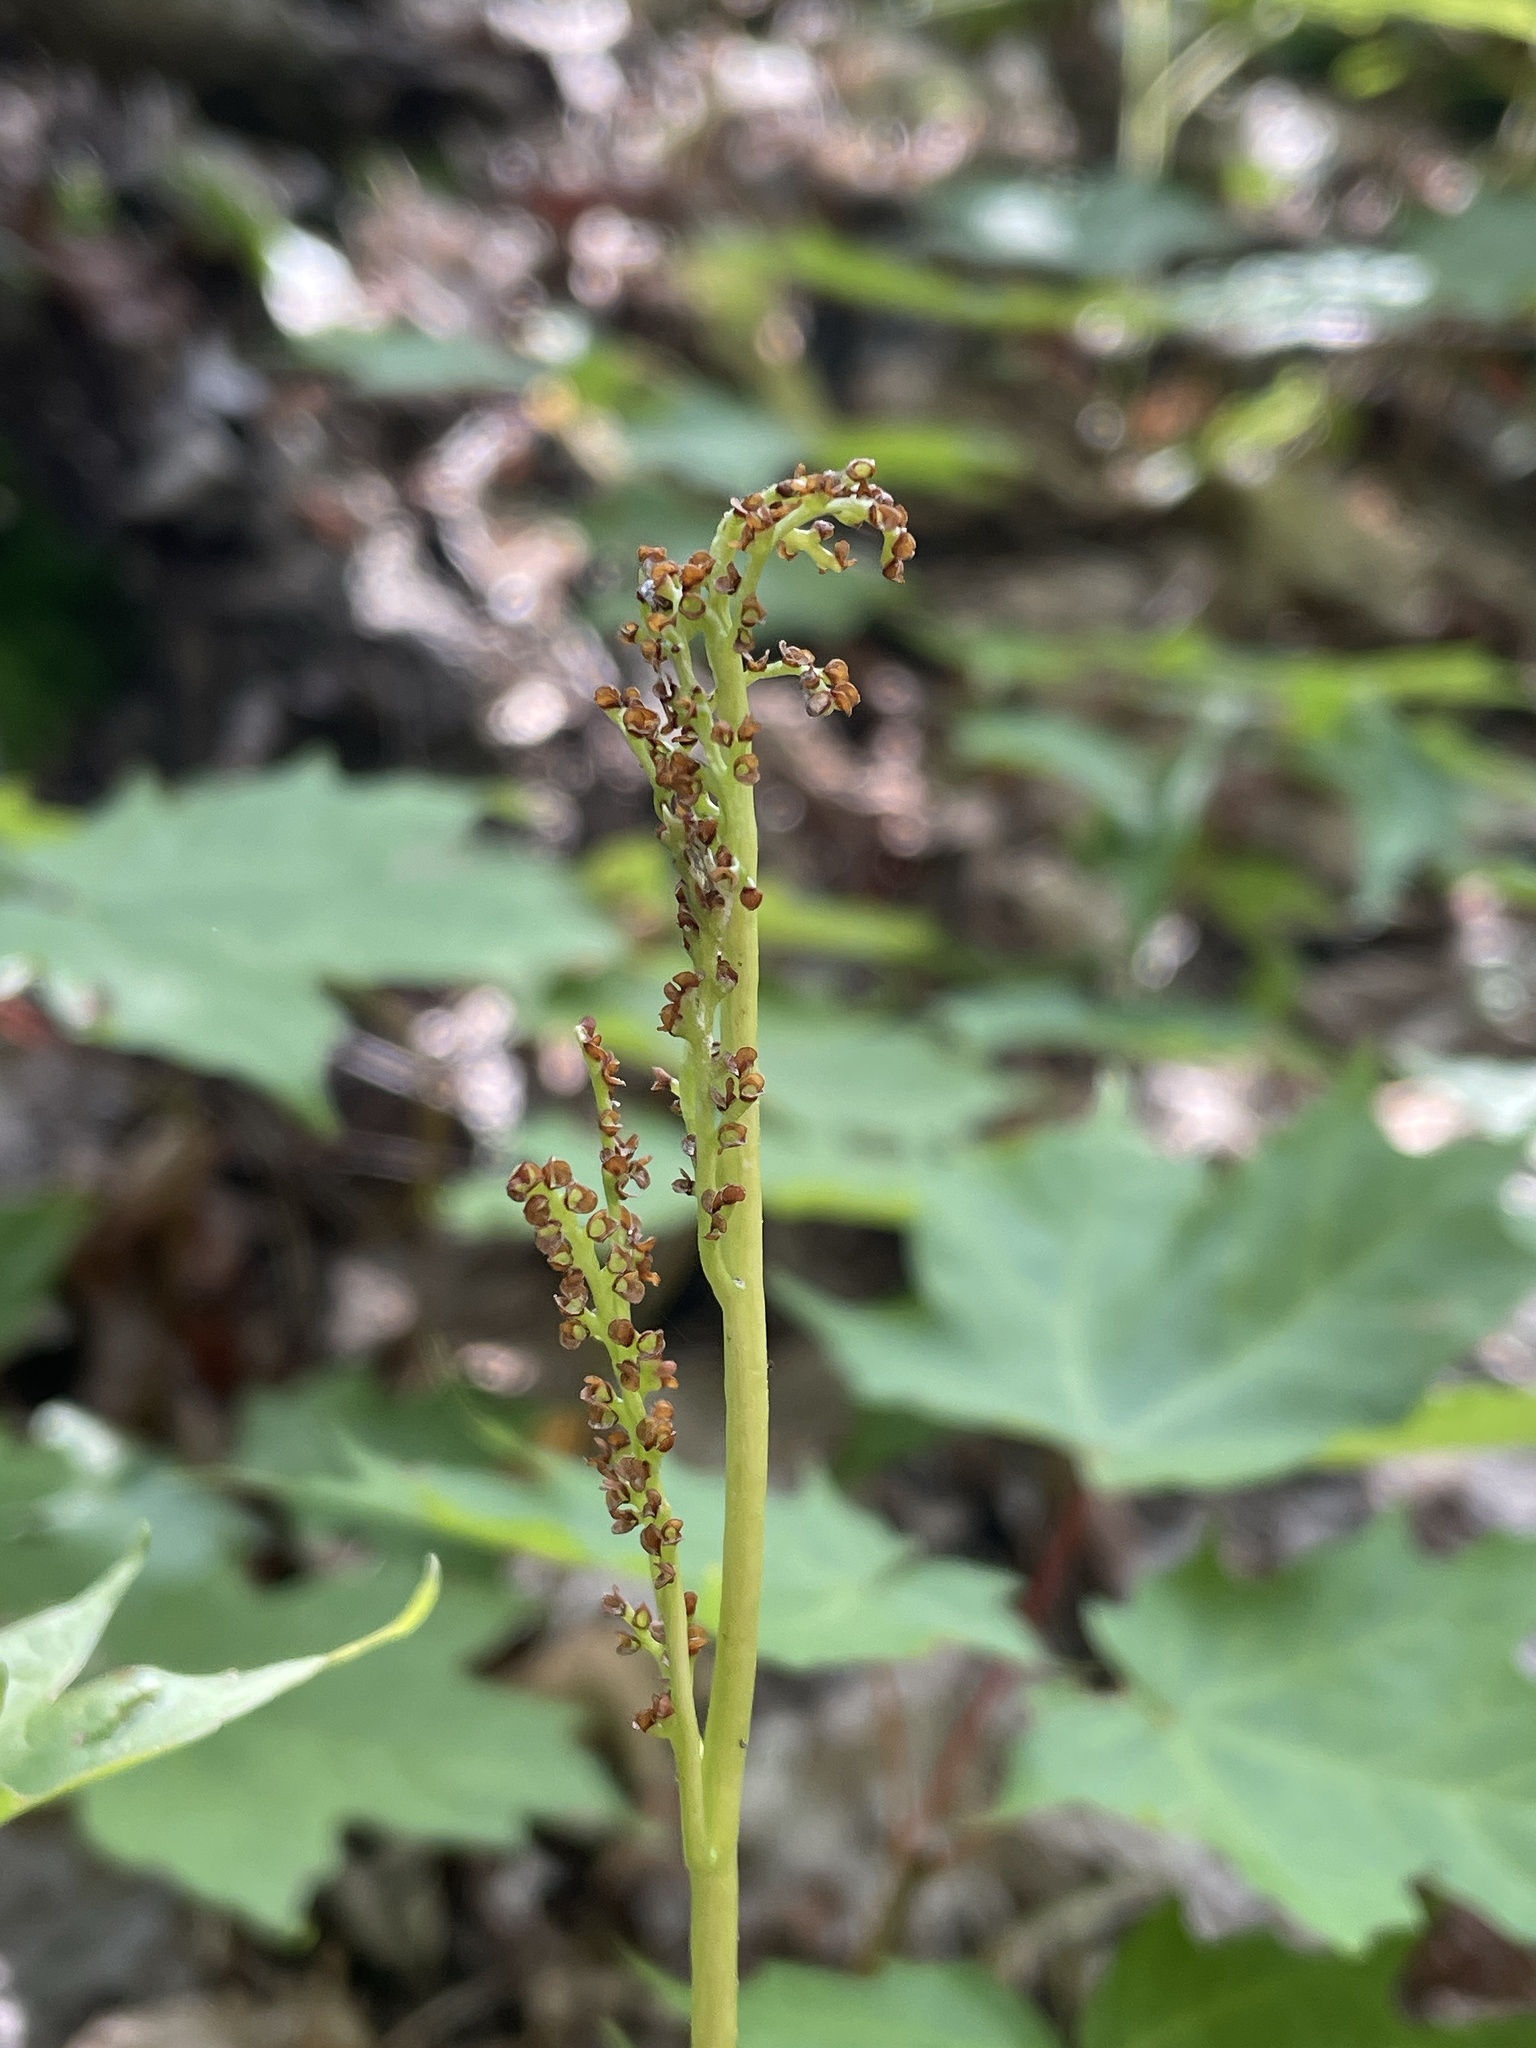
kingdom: Plantae
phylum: Tracheophyta
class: Polypodiopsida
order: Ophioglossales
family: Ophioglossaceae
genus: Botrypus
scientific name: Botrypus virginianus
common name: Common grapefern
